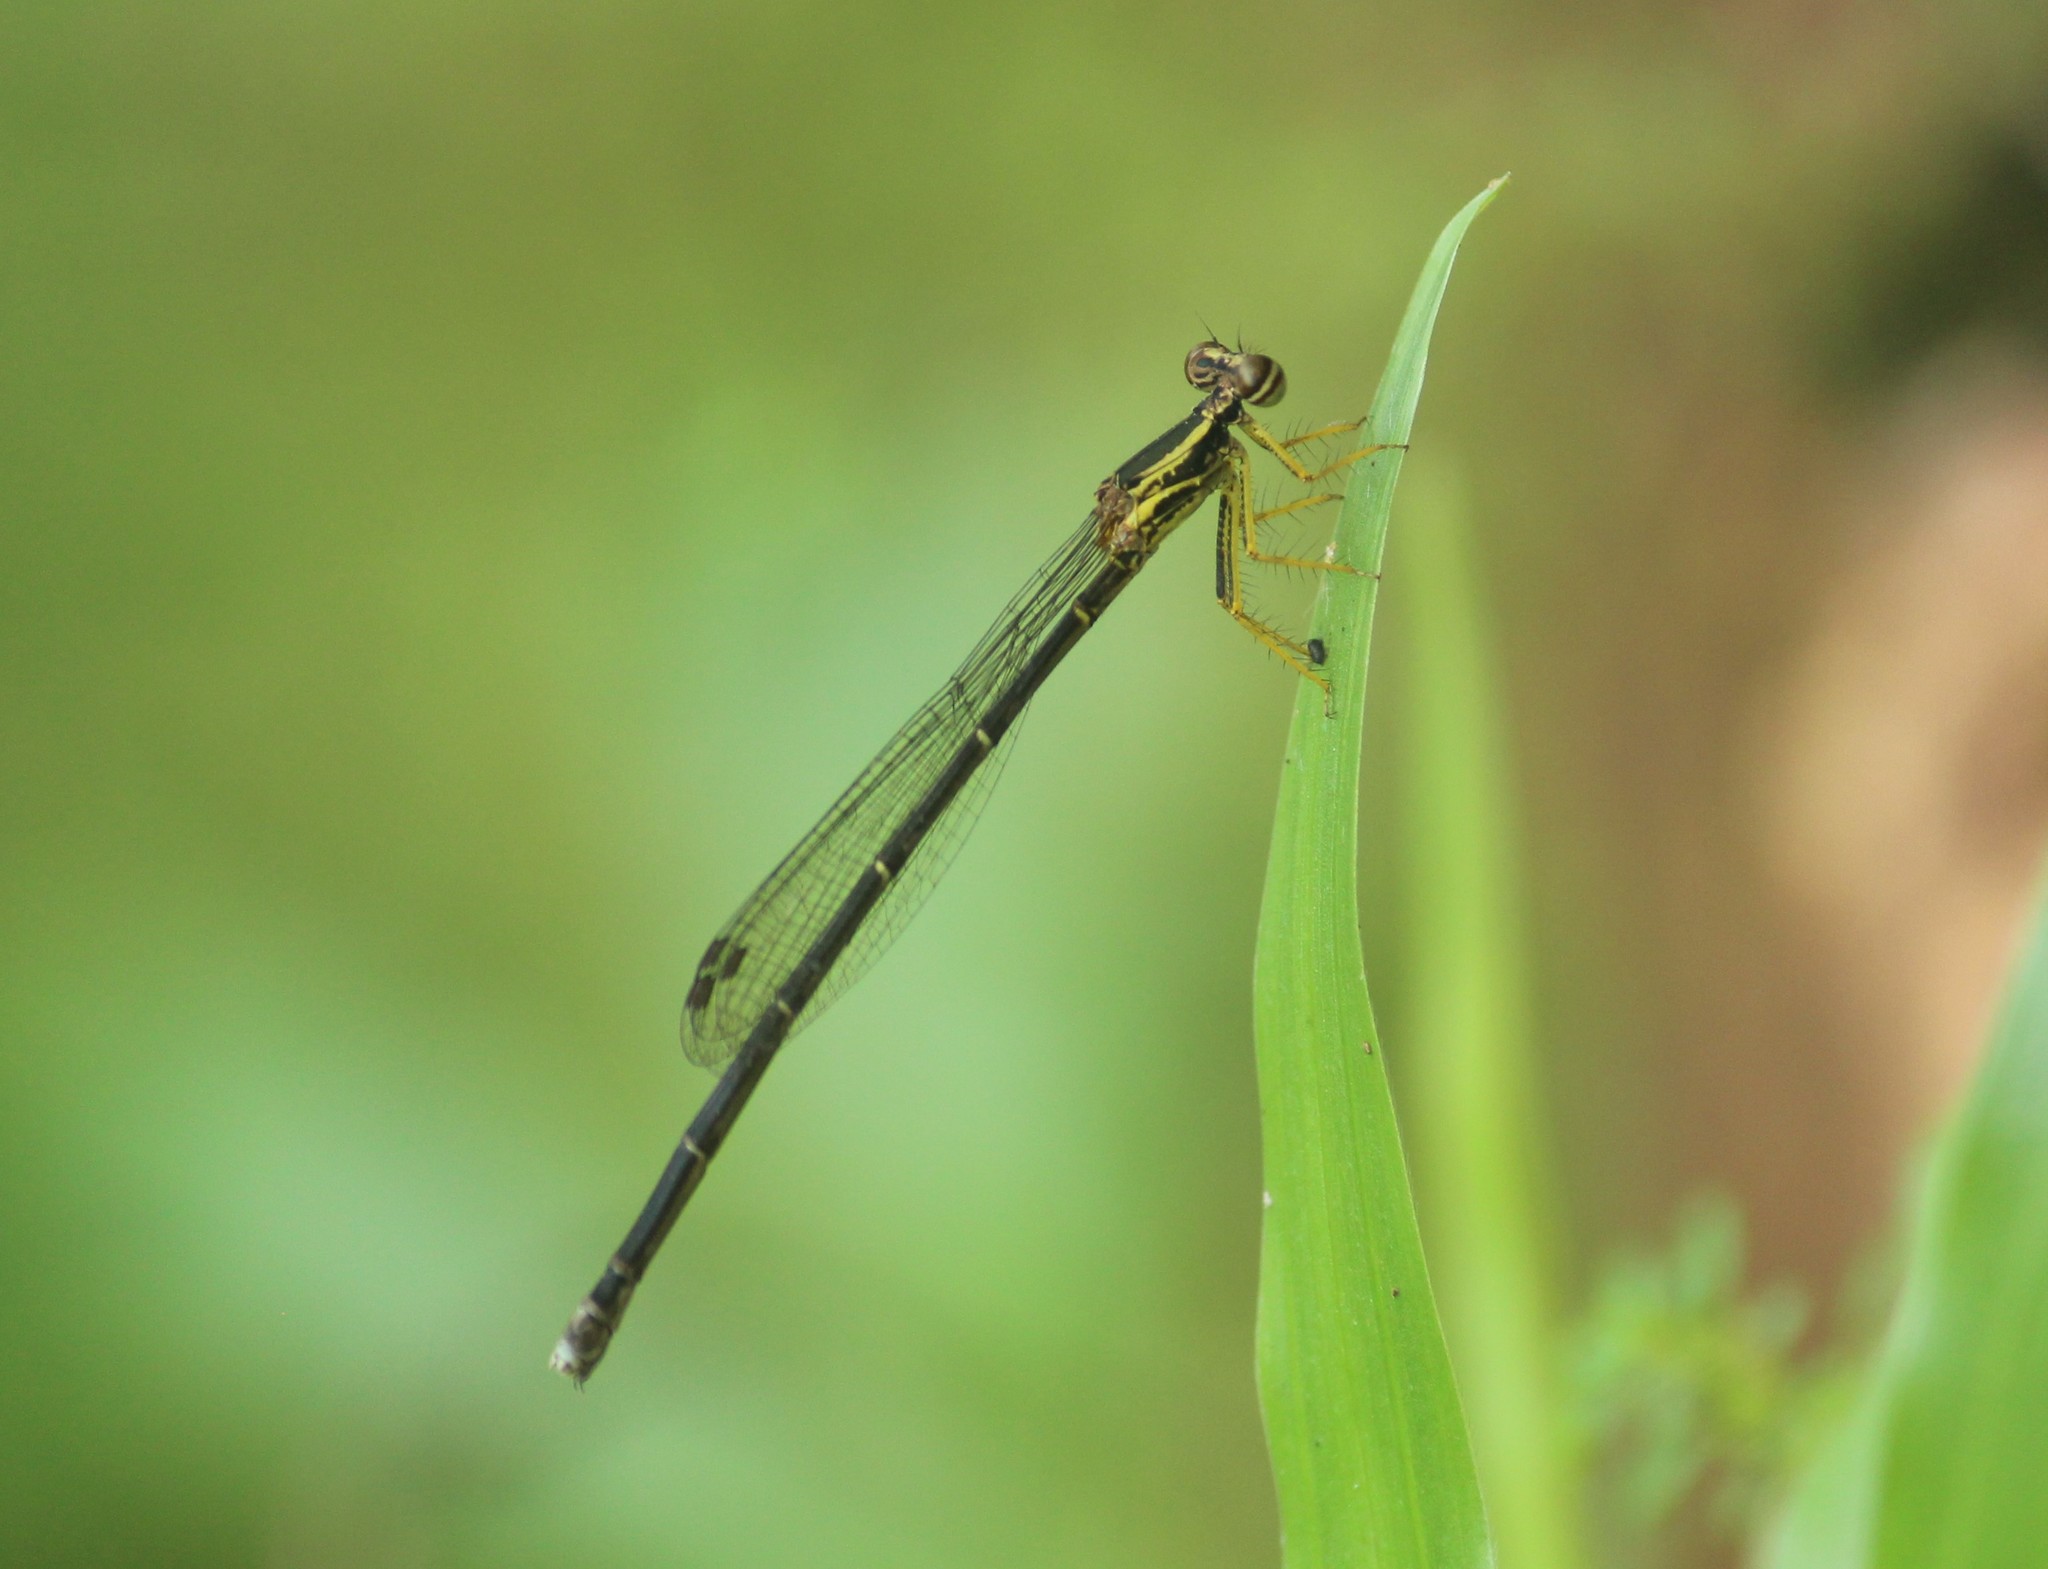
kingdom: Animalia
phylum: Arthropoda
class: Insecta
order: Odonata
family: Platycnemididae
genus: Copera
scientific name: Copera marginipes
